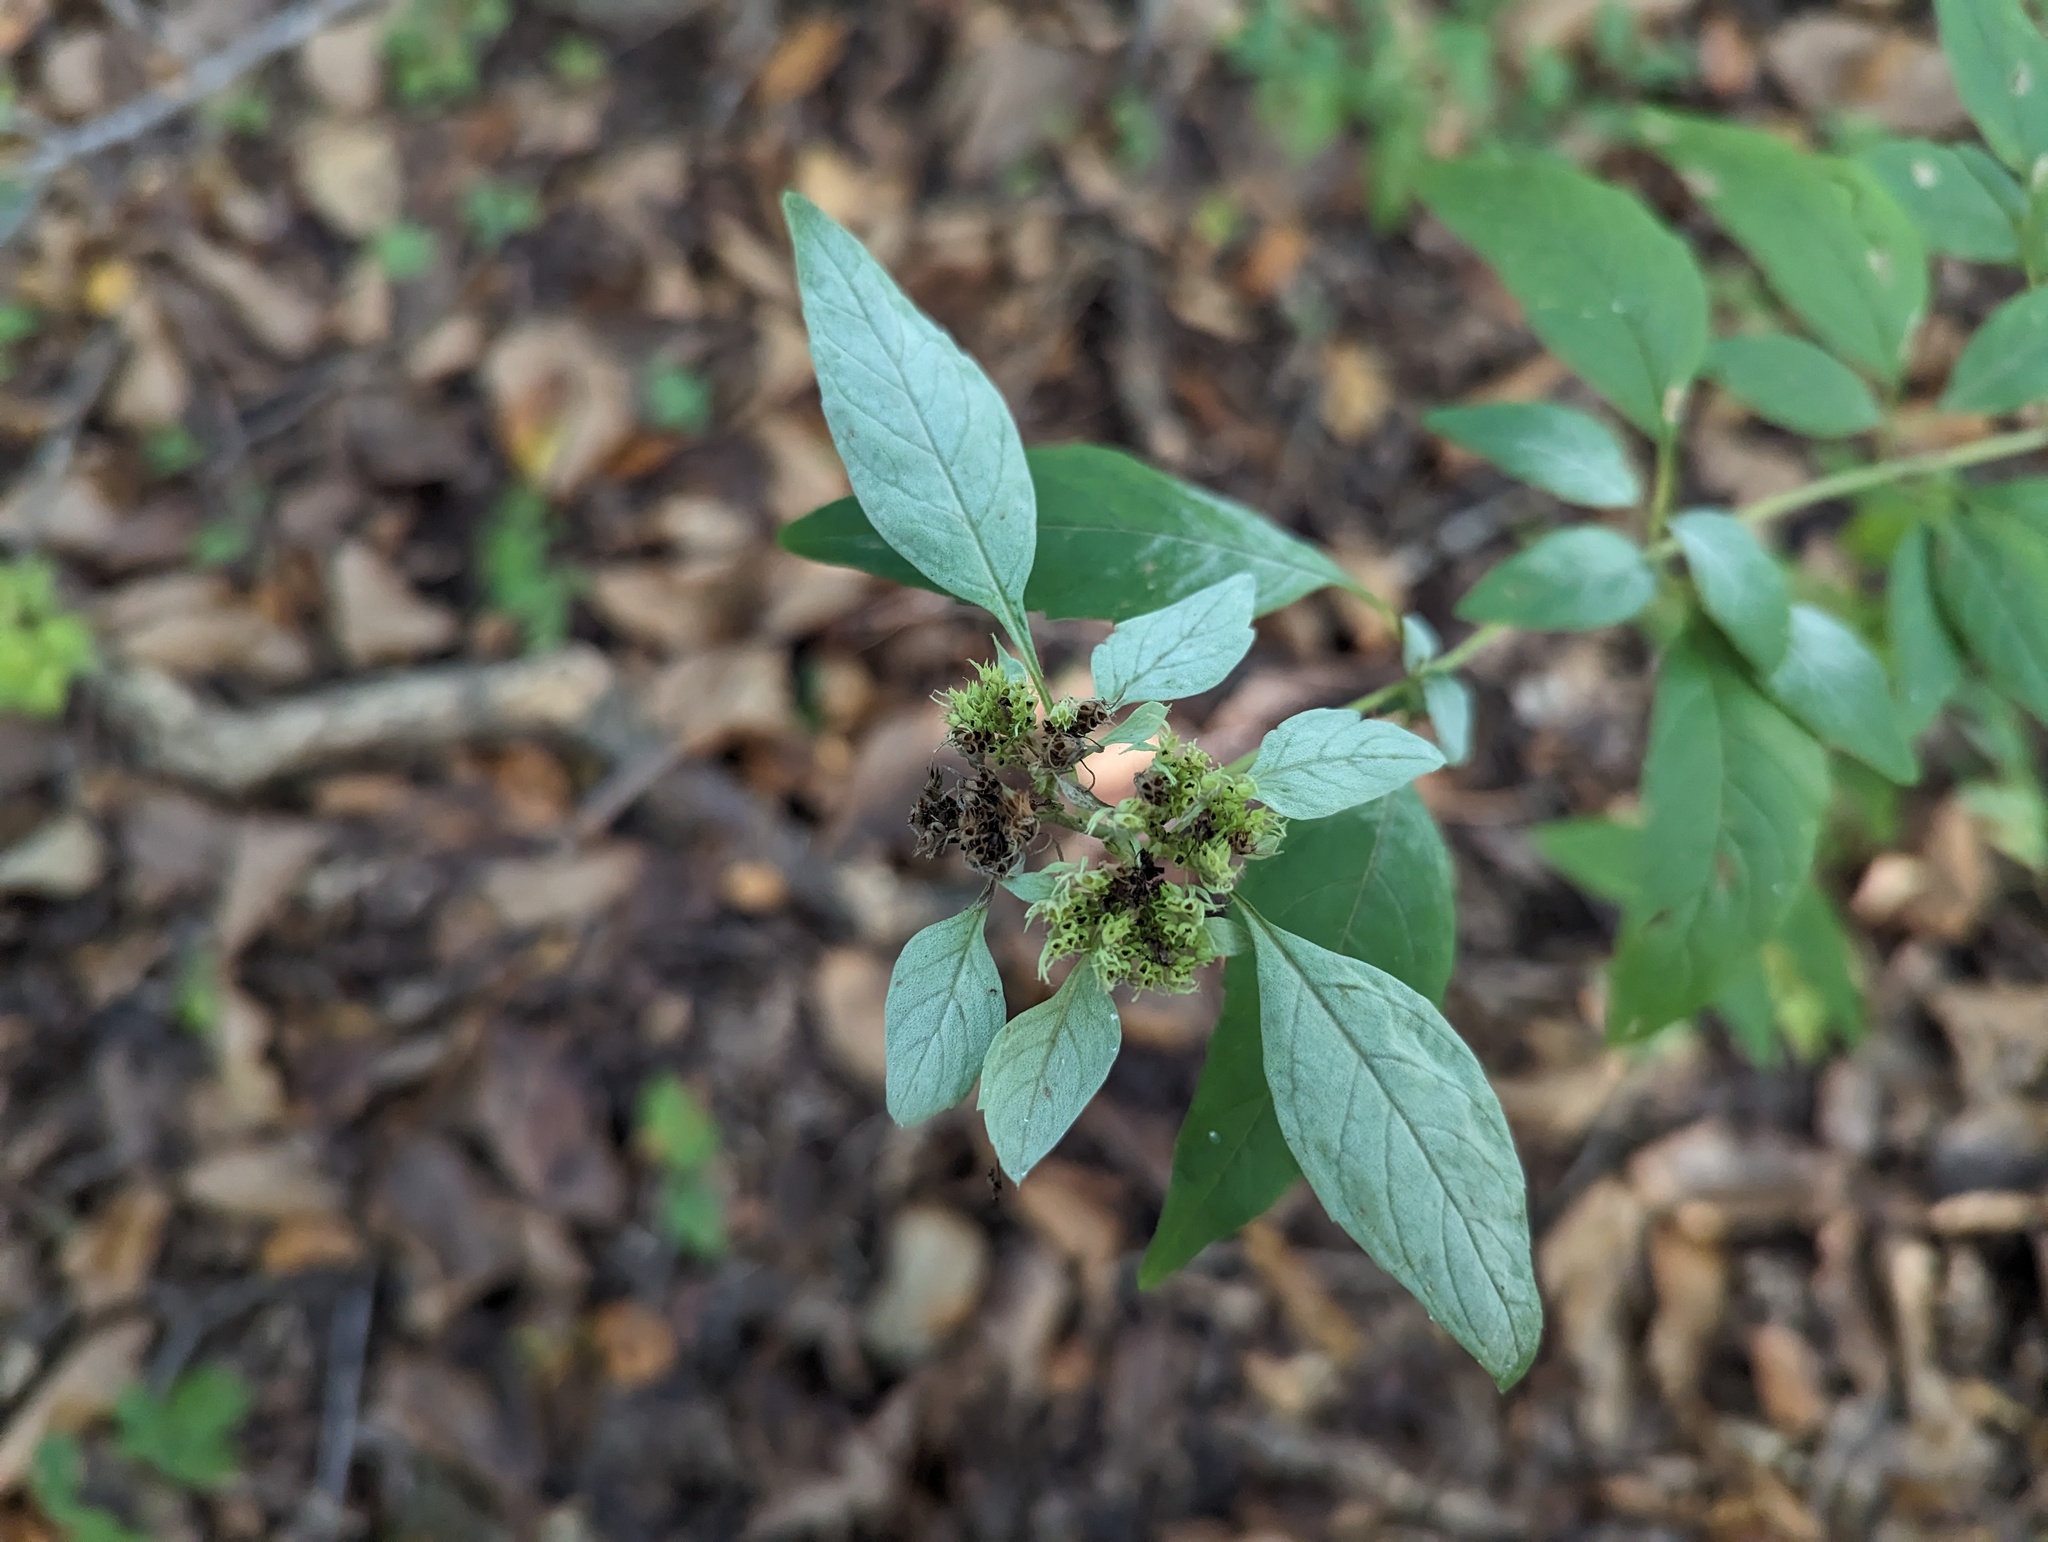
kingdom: Plantae
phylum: Tracheophyta
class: Magnoliopsida
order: Lamiales
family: Lamiaceae
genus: Pycnanthemum
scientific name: Pycnanthemum pycnanthemoides
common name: Southern mountain-mint
